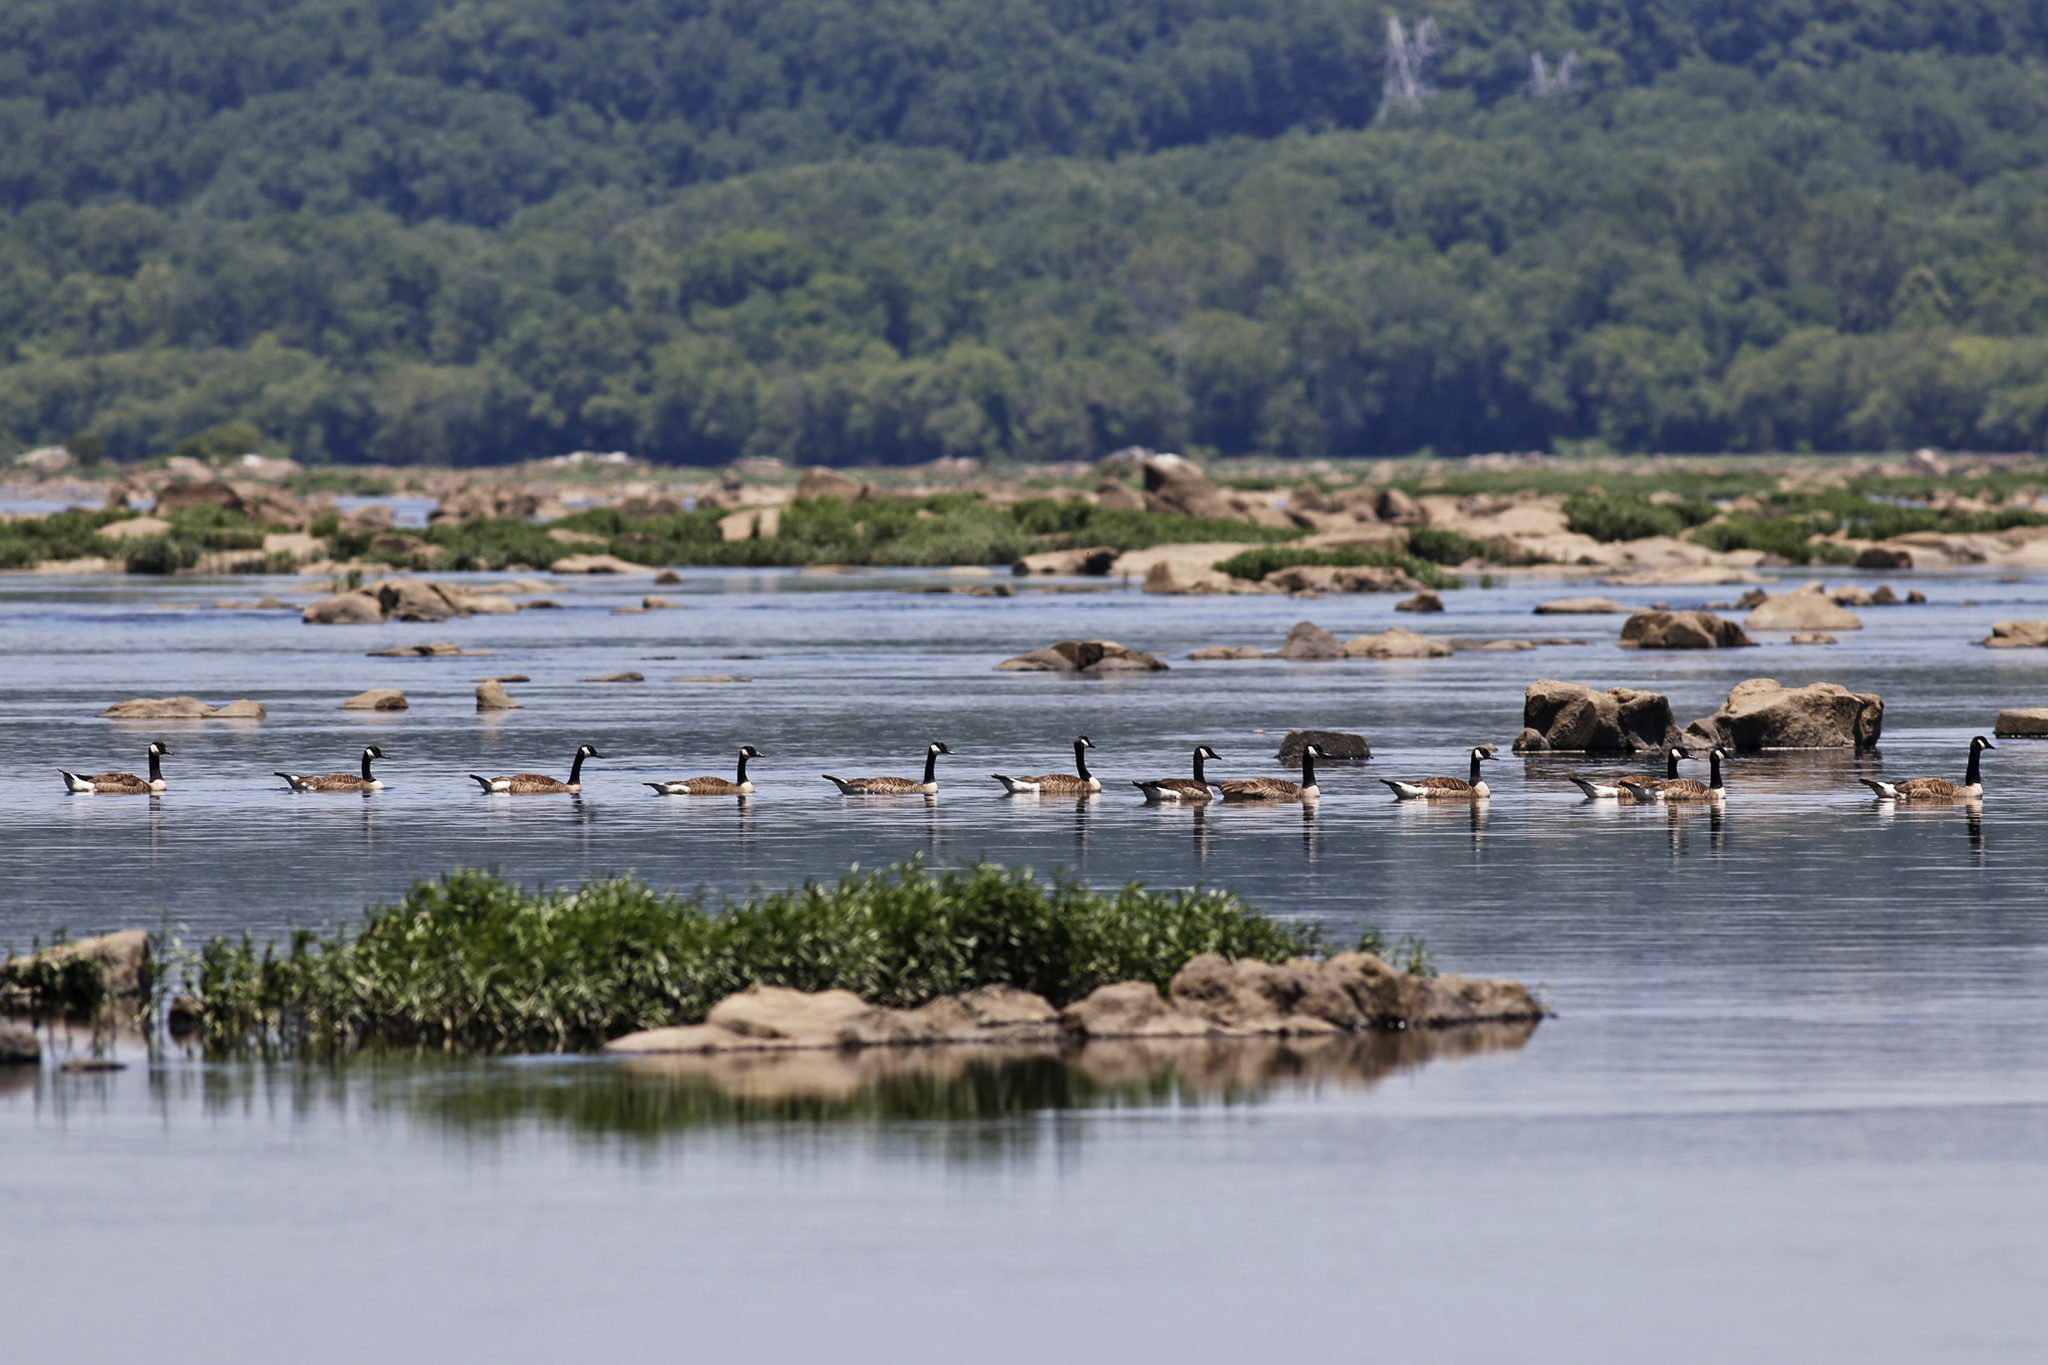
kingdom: Animalia
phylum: Chordata
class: Aves
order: Anseriformes
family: Anatidae
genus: Branta
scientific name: Branta canadensis
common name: Canada goose
